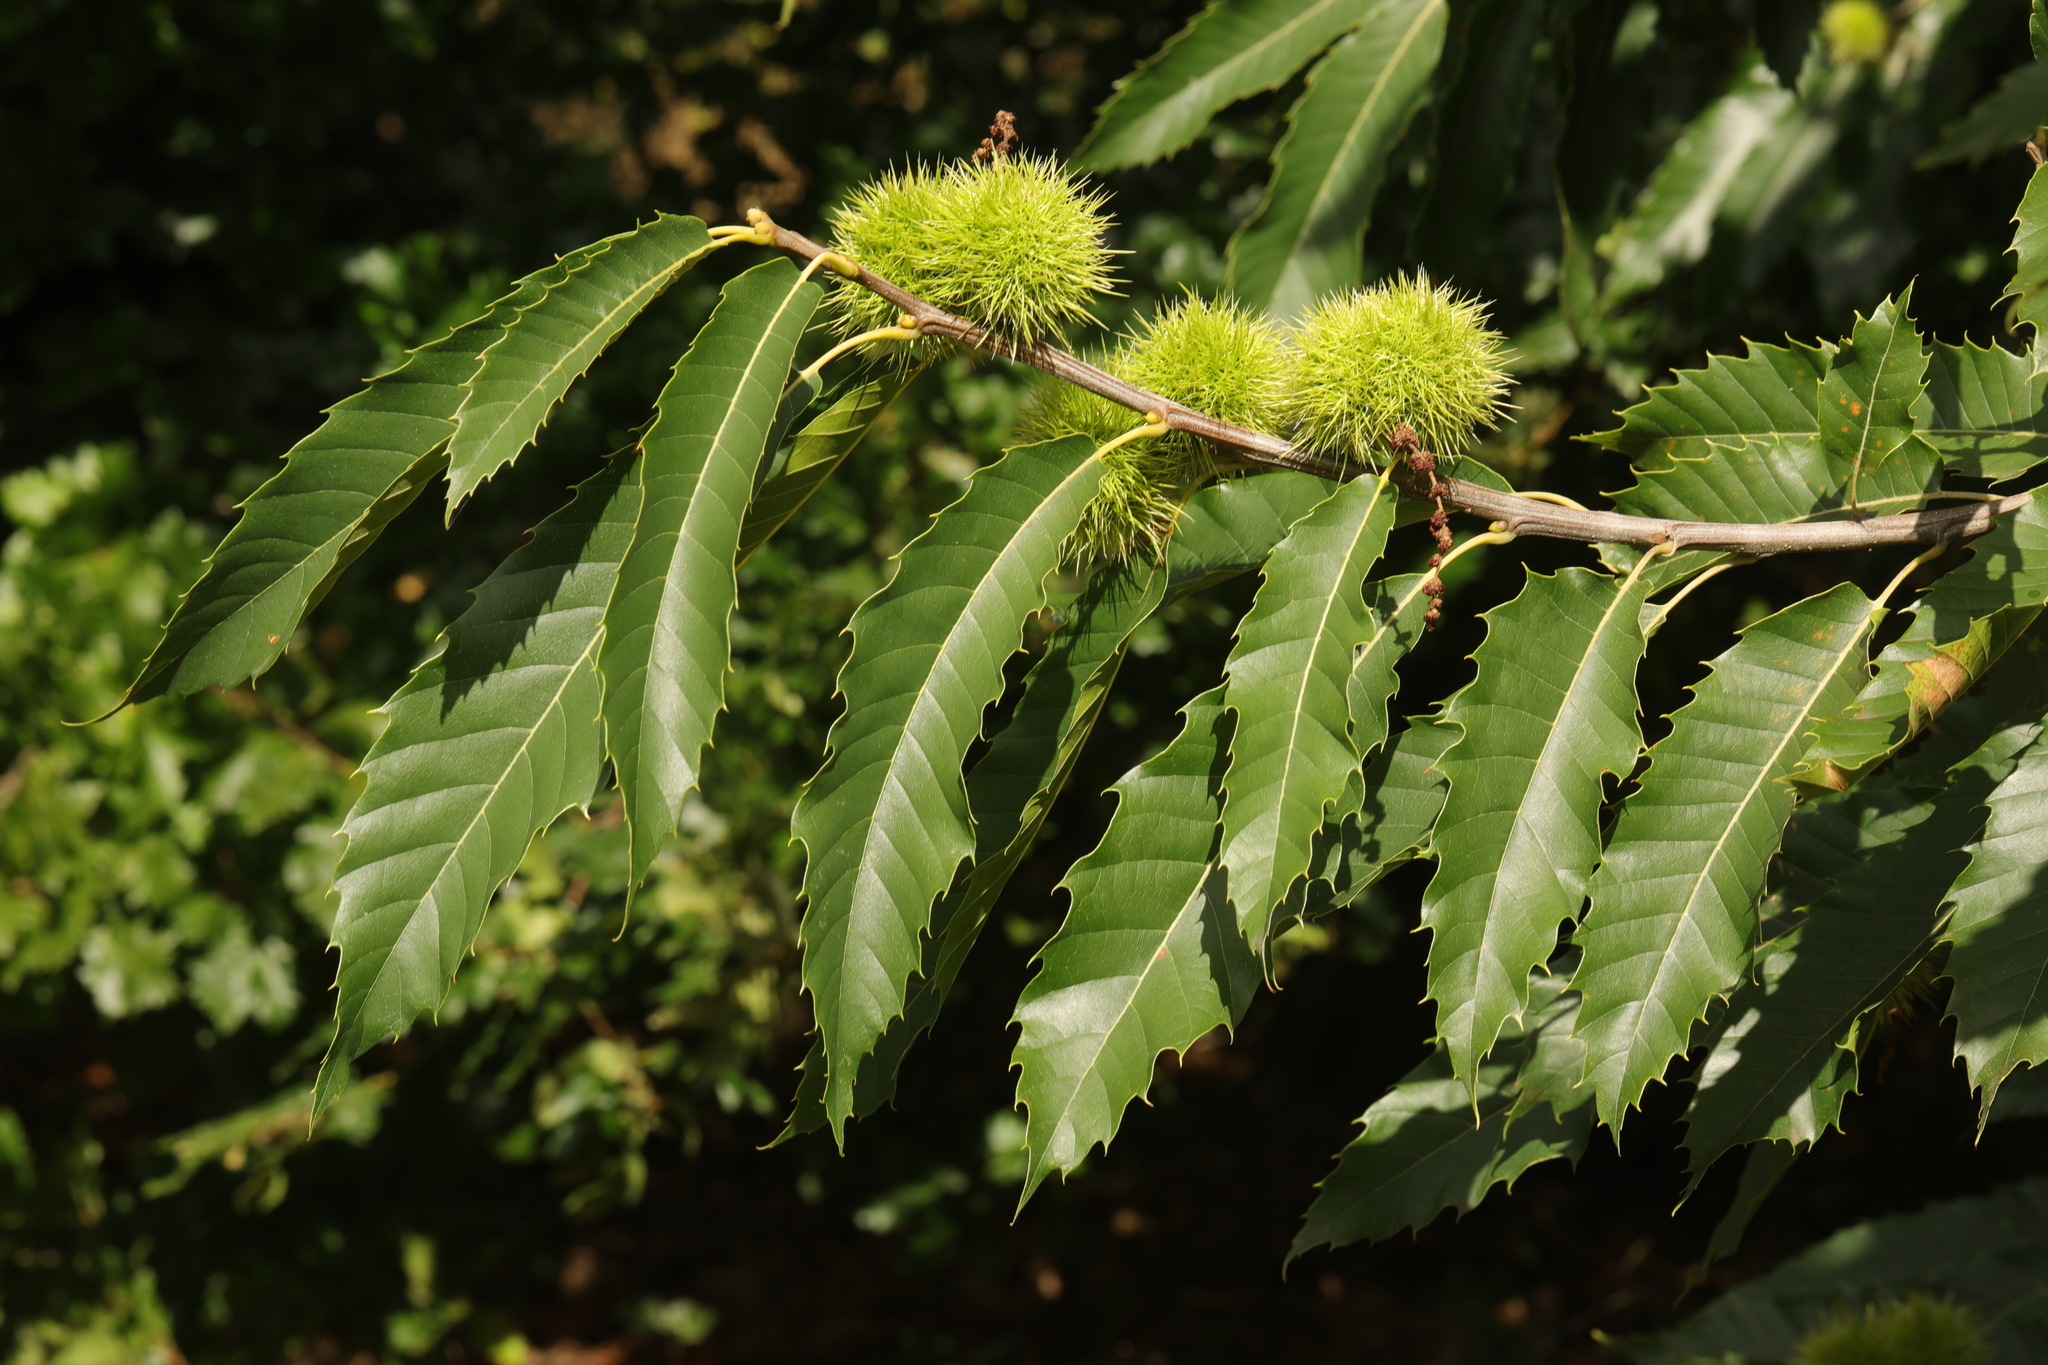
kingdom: Plantae
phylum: Tracheophyta
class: Magnoliopsida
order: Fagales
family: Fagaceae
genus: Castanea
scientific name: Castanea sativa
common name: Sweet chestnut
